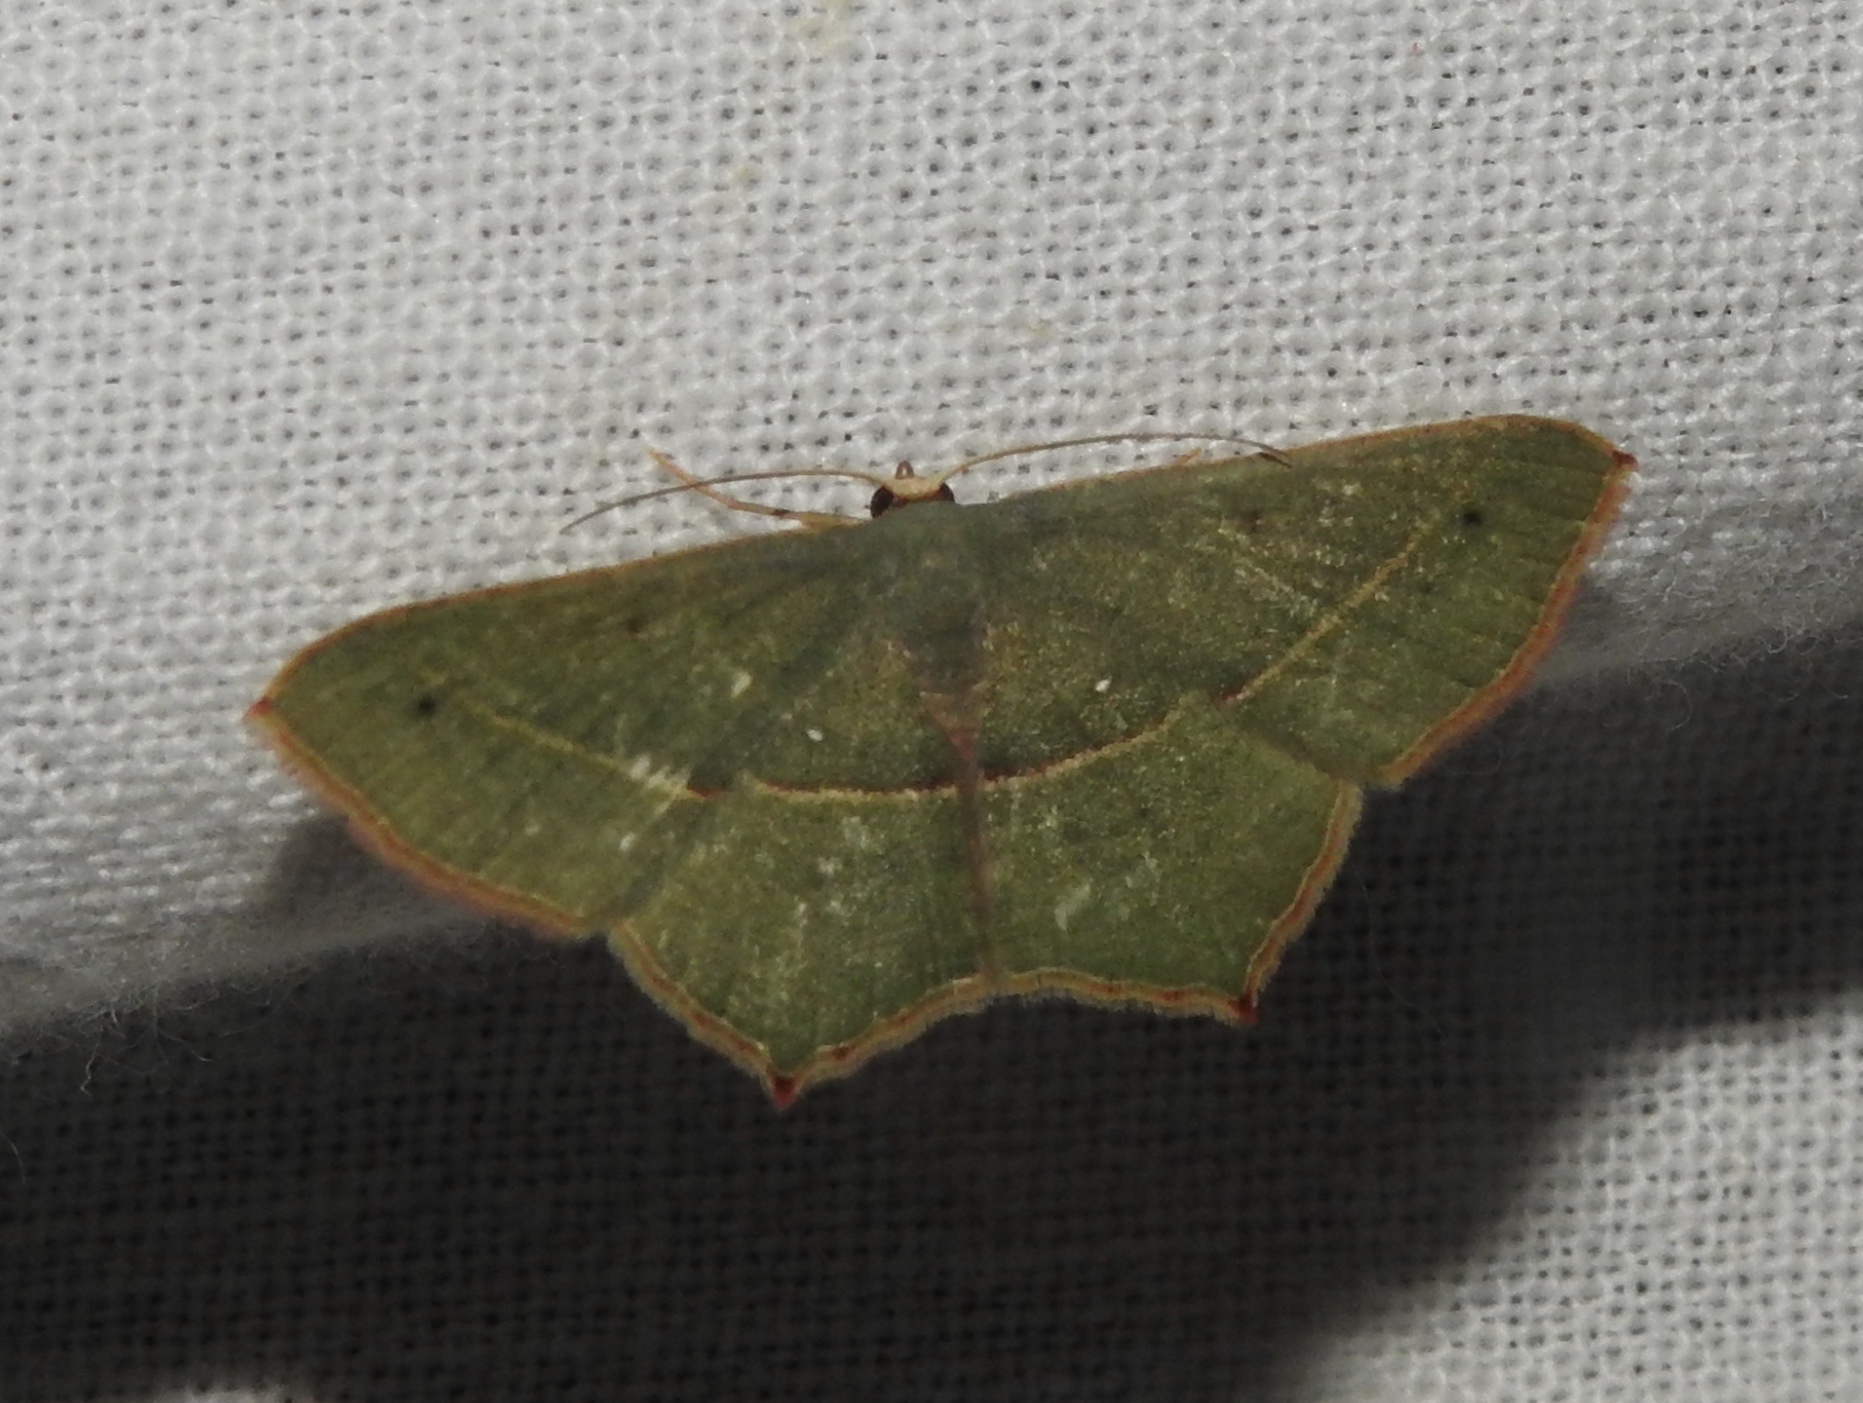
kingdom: Animalia
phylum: Arthropoda
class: Insecta
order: Lepidoptera
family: Geometridae
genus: Traminda
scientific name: Traminda mundissima
